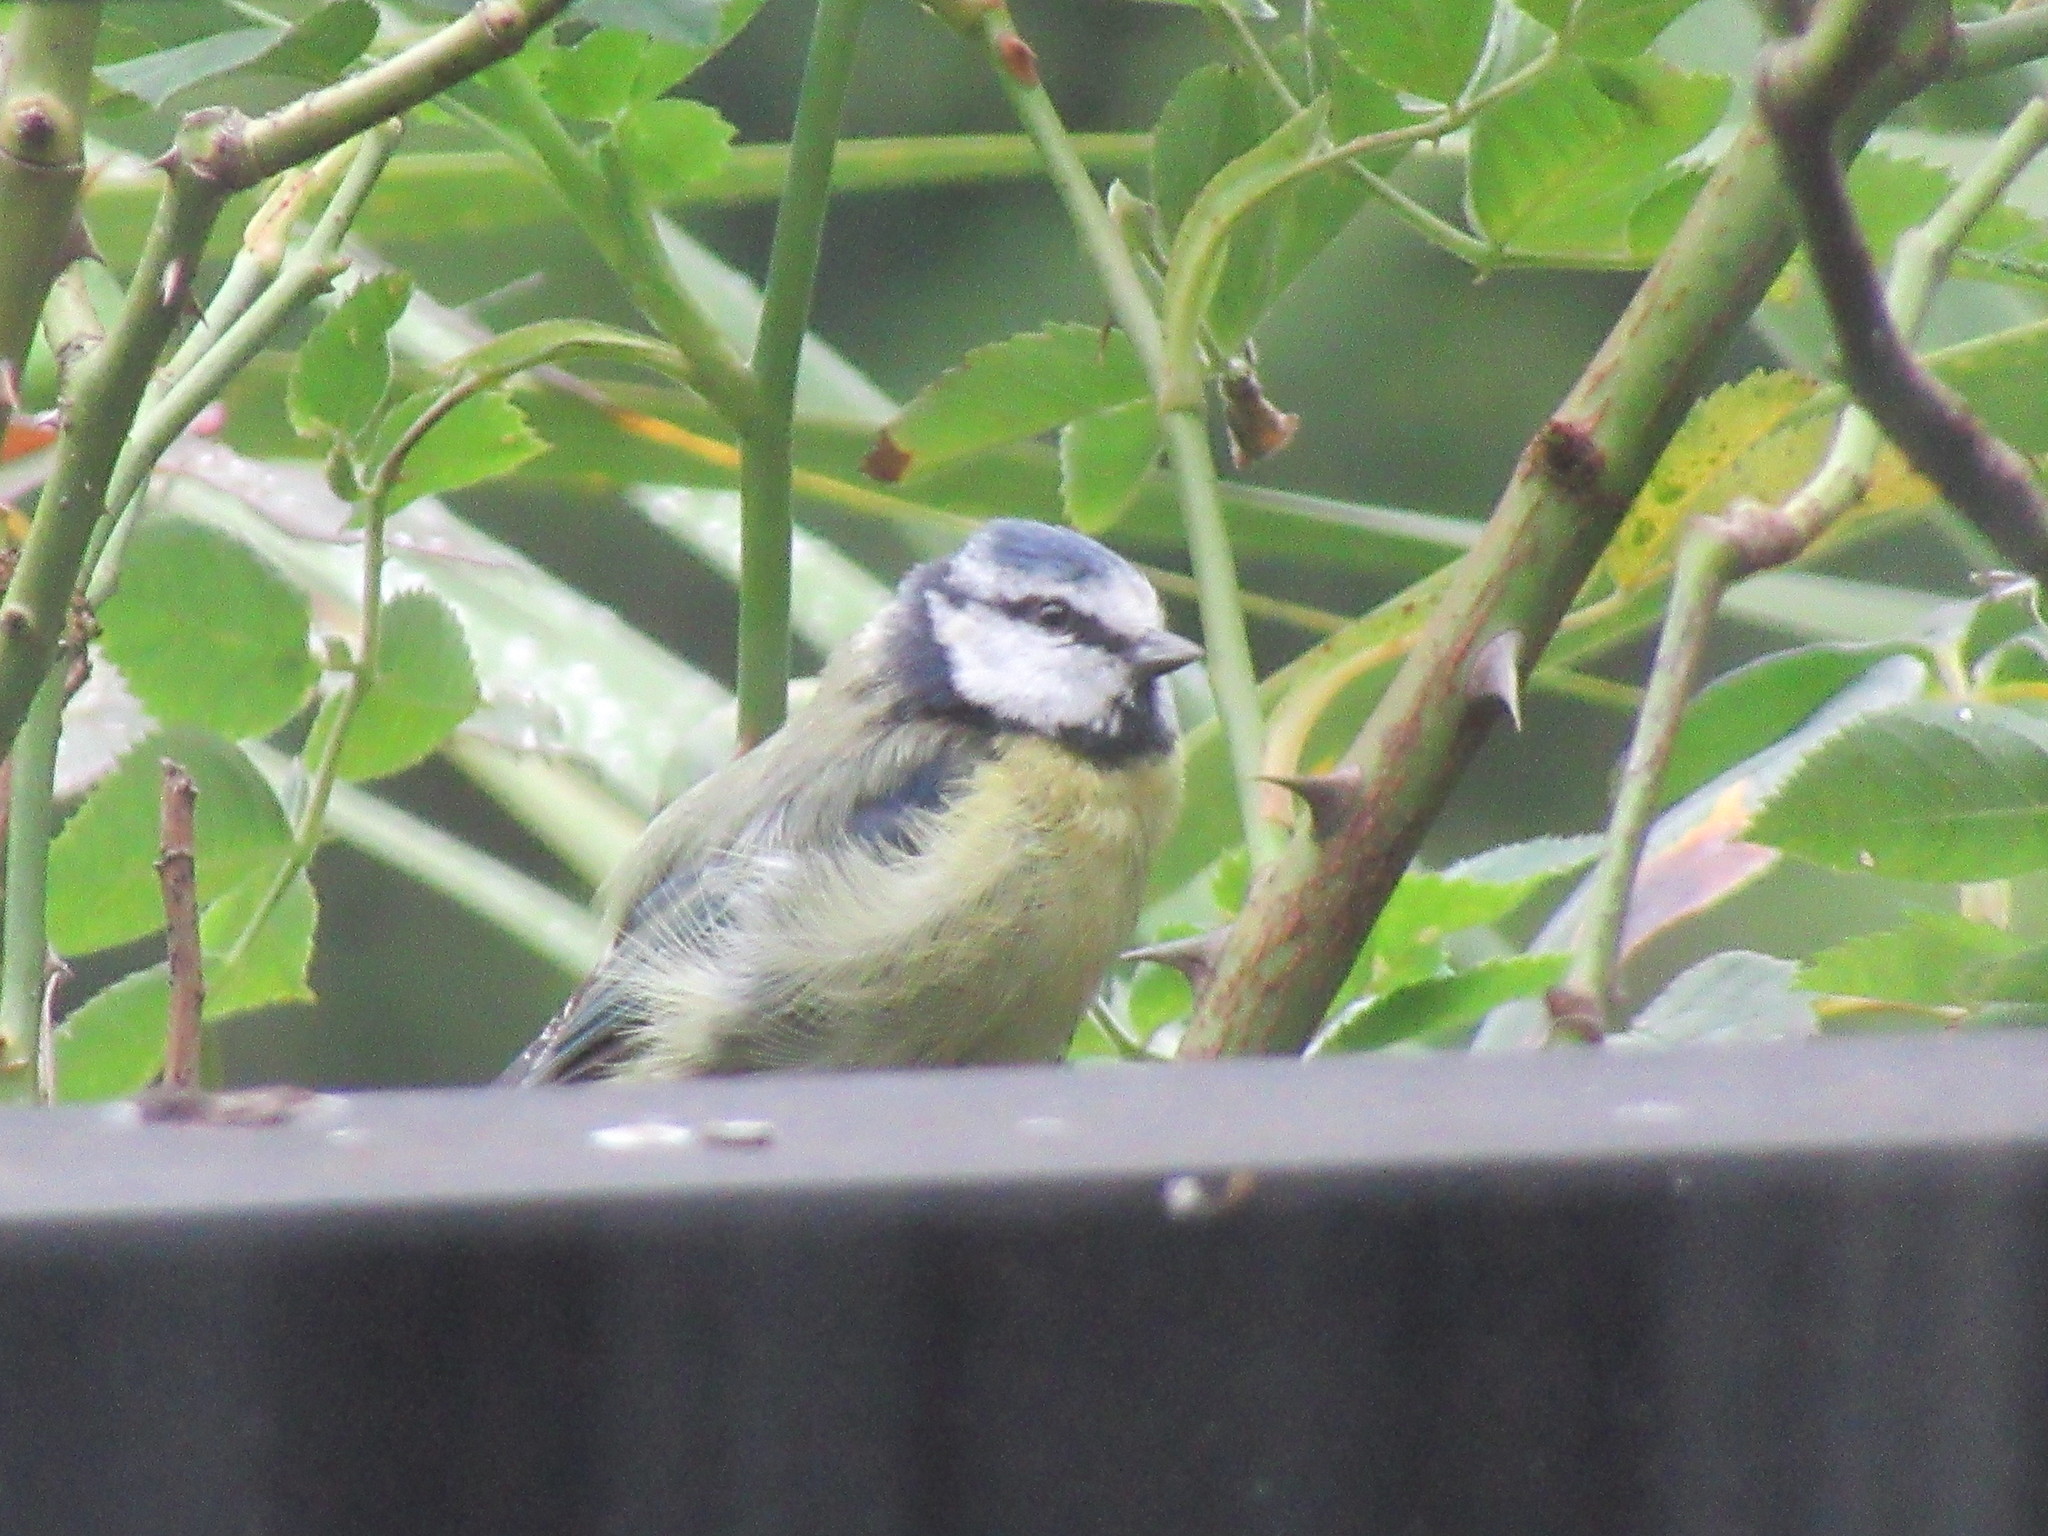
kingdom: Animalia
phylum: Chordata
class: Aves
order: Passeriformes
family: Paridae
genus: Cyanistes
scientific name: Cyanistes caeruleus
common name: Eurasian blue tit
